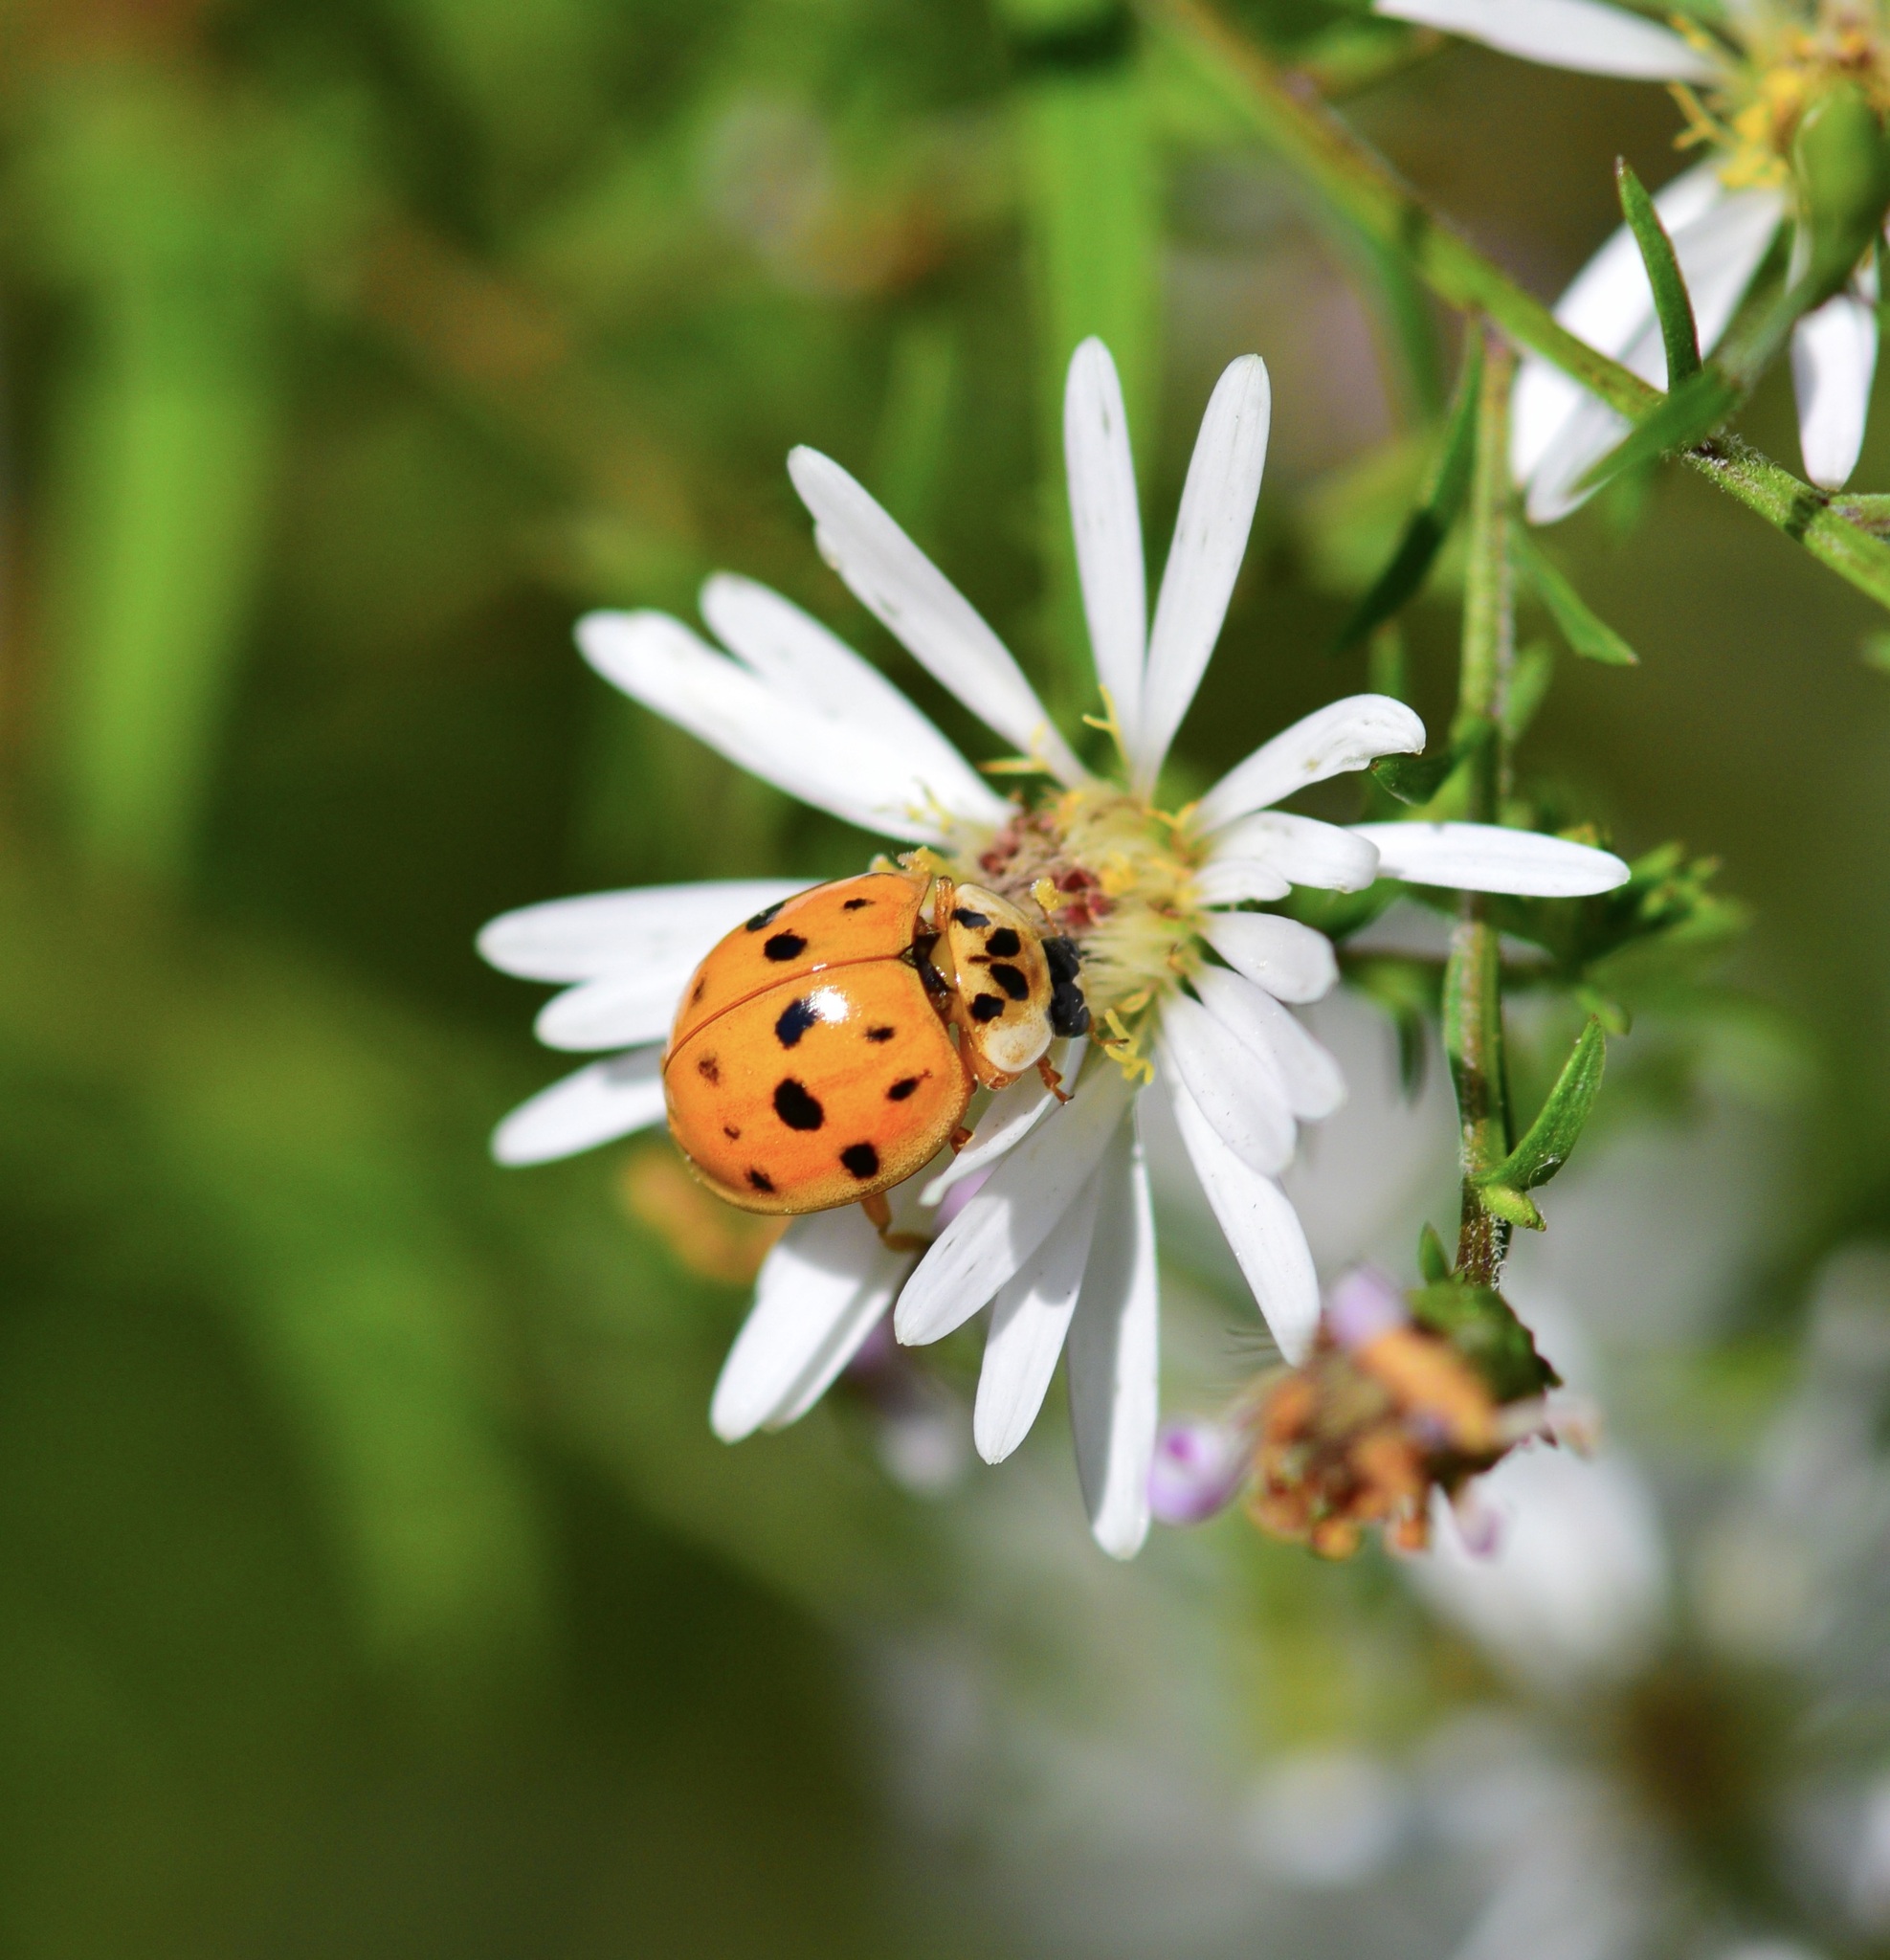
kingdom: Animalia
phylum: Arthropoda
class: Insecta
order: Coleoptera
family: Coccinellidae
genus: Harmonia
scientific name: Harmonia axyridis
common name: Harlequin ladybird
